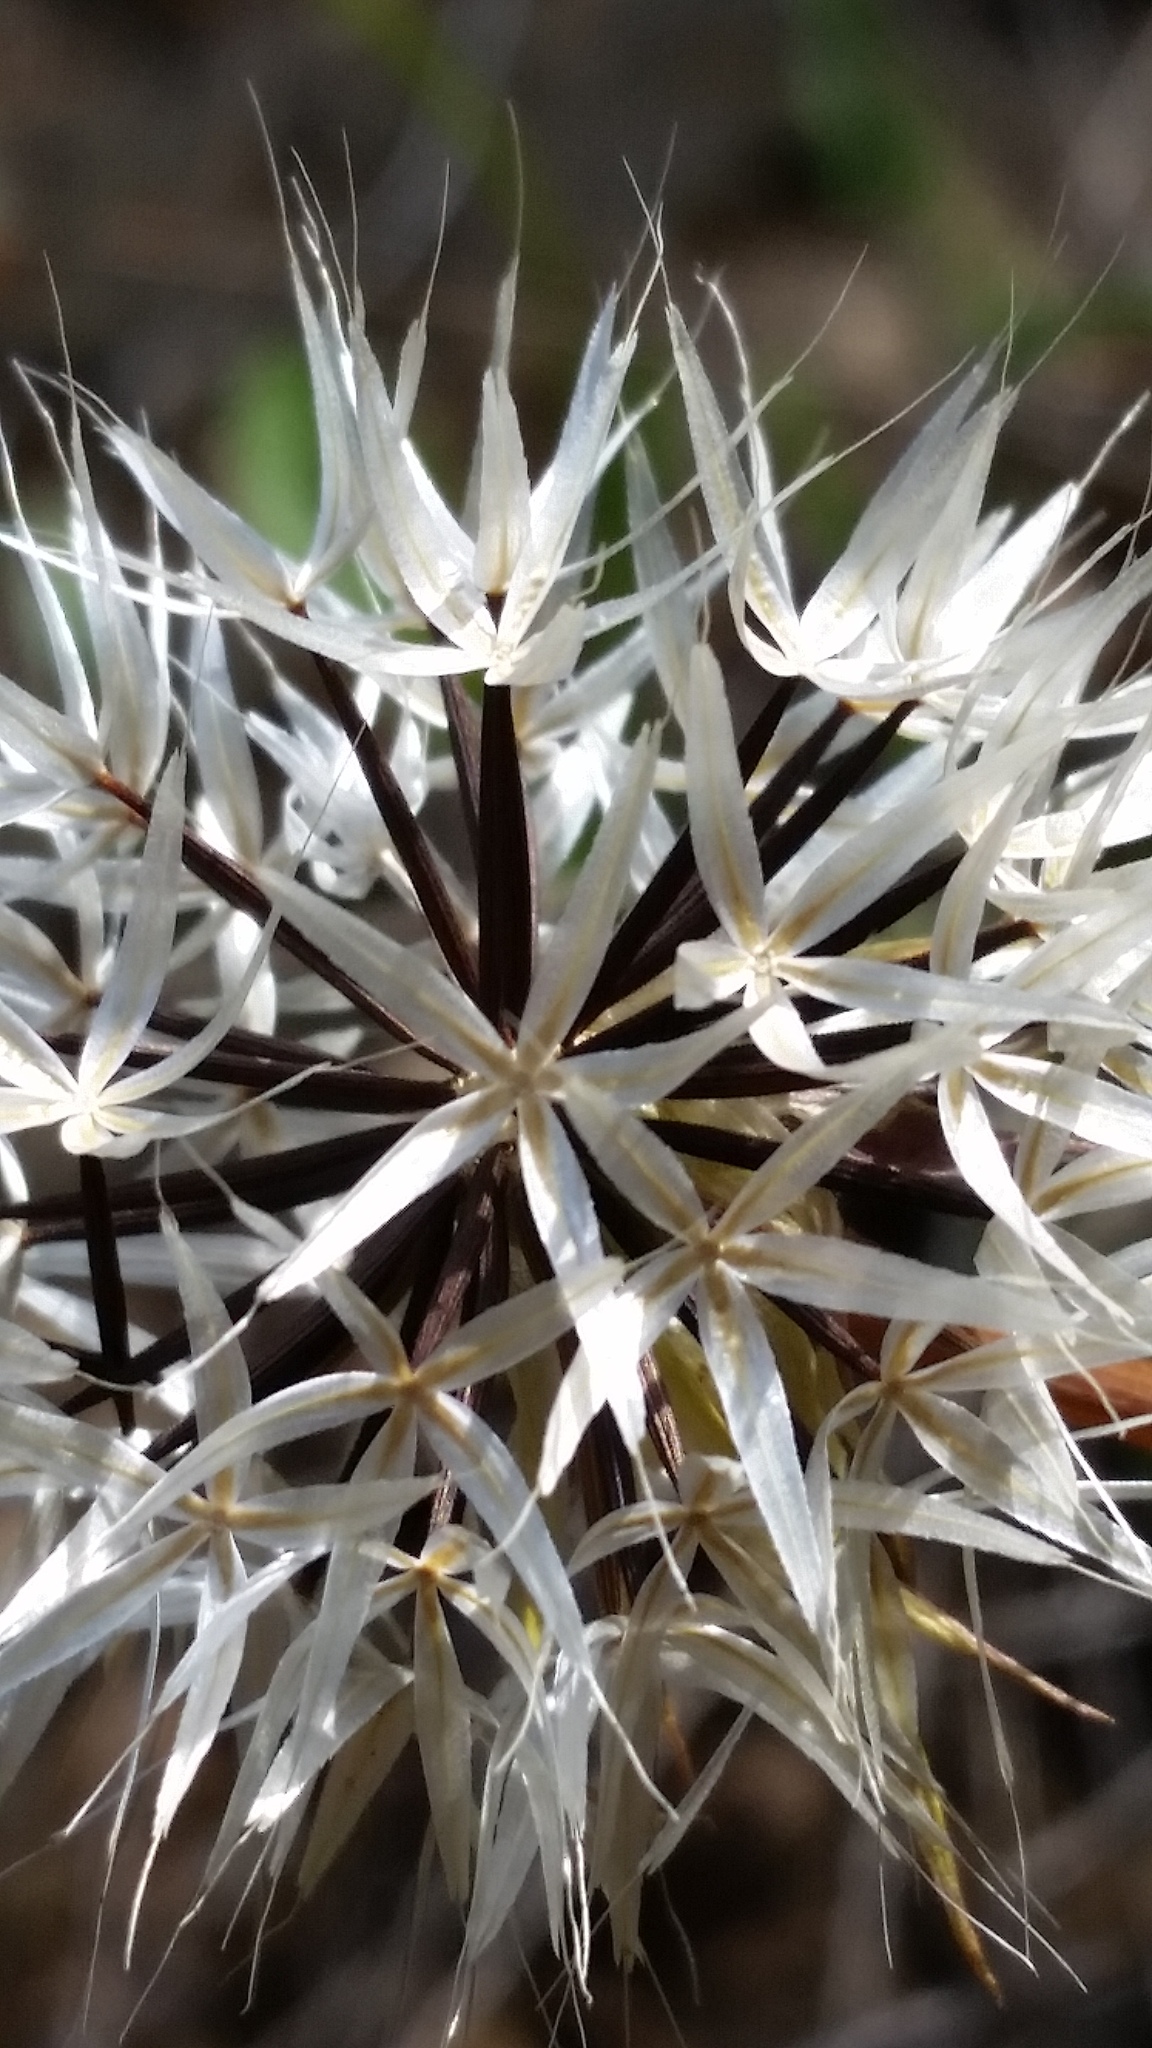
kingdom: Plantae
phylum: Tracheophyta
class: Magnoliopsida
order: Asterales
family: Asteraceae
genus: Microseris
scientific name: Microseris lindleyi
